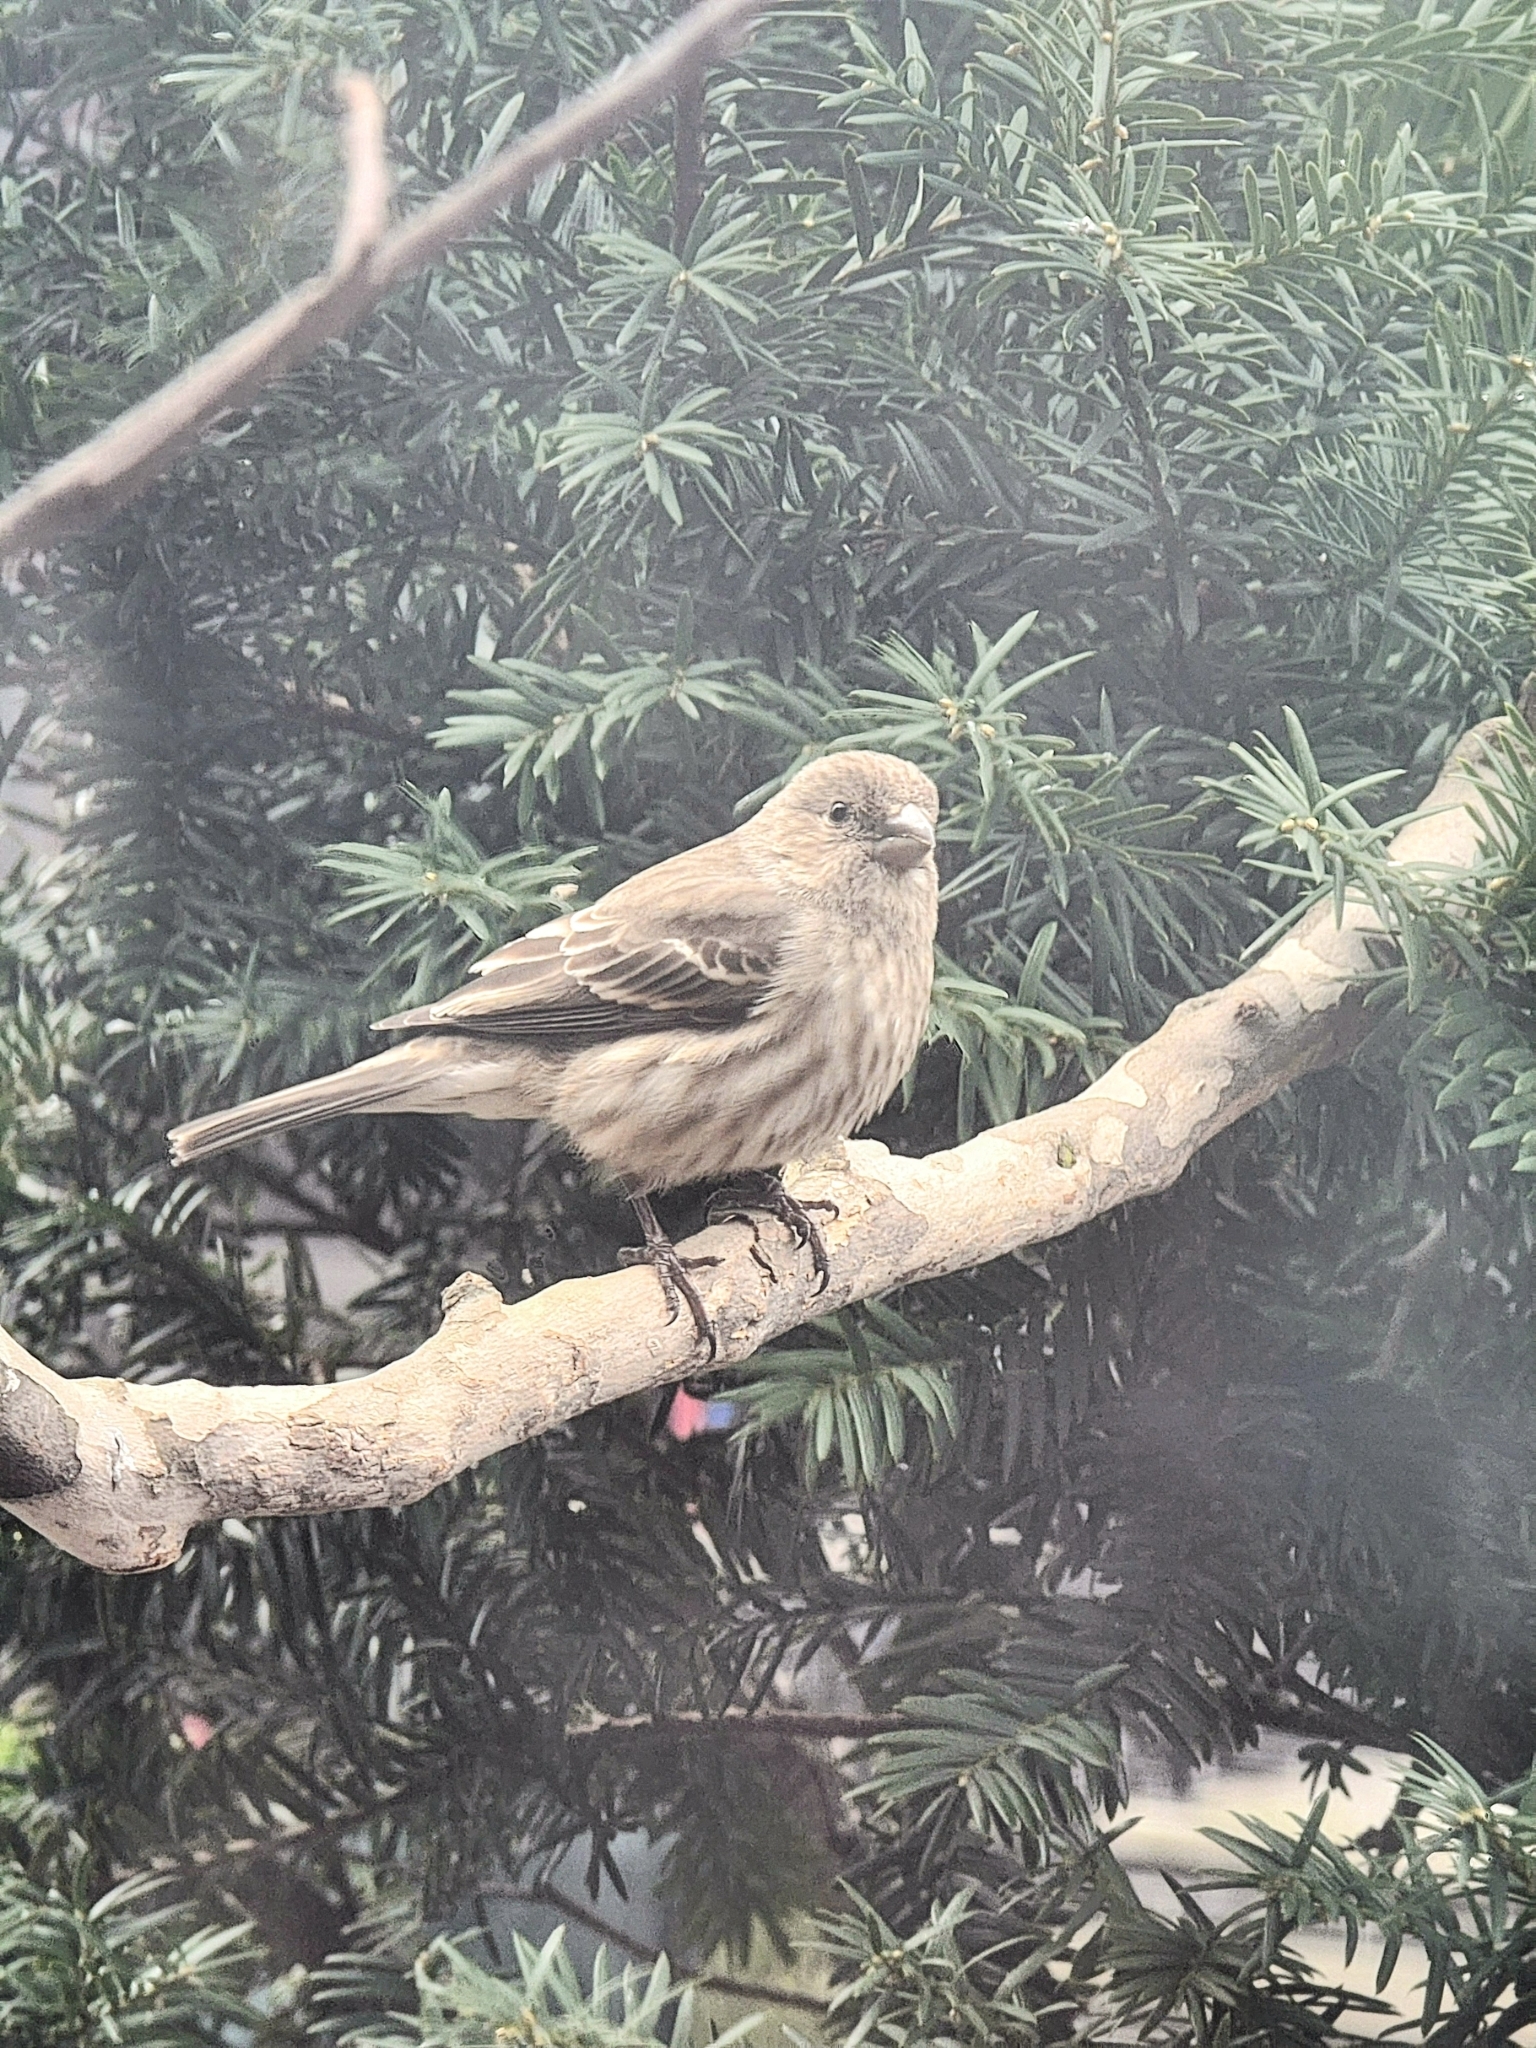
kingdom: Animalia
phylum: Chordata
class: Aves
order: Passeriformes
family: Fringillidae
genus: Haemorhous
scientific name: Haemorhous mexicanus
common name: House finch
